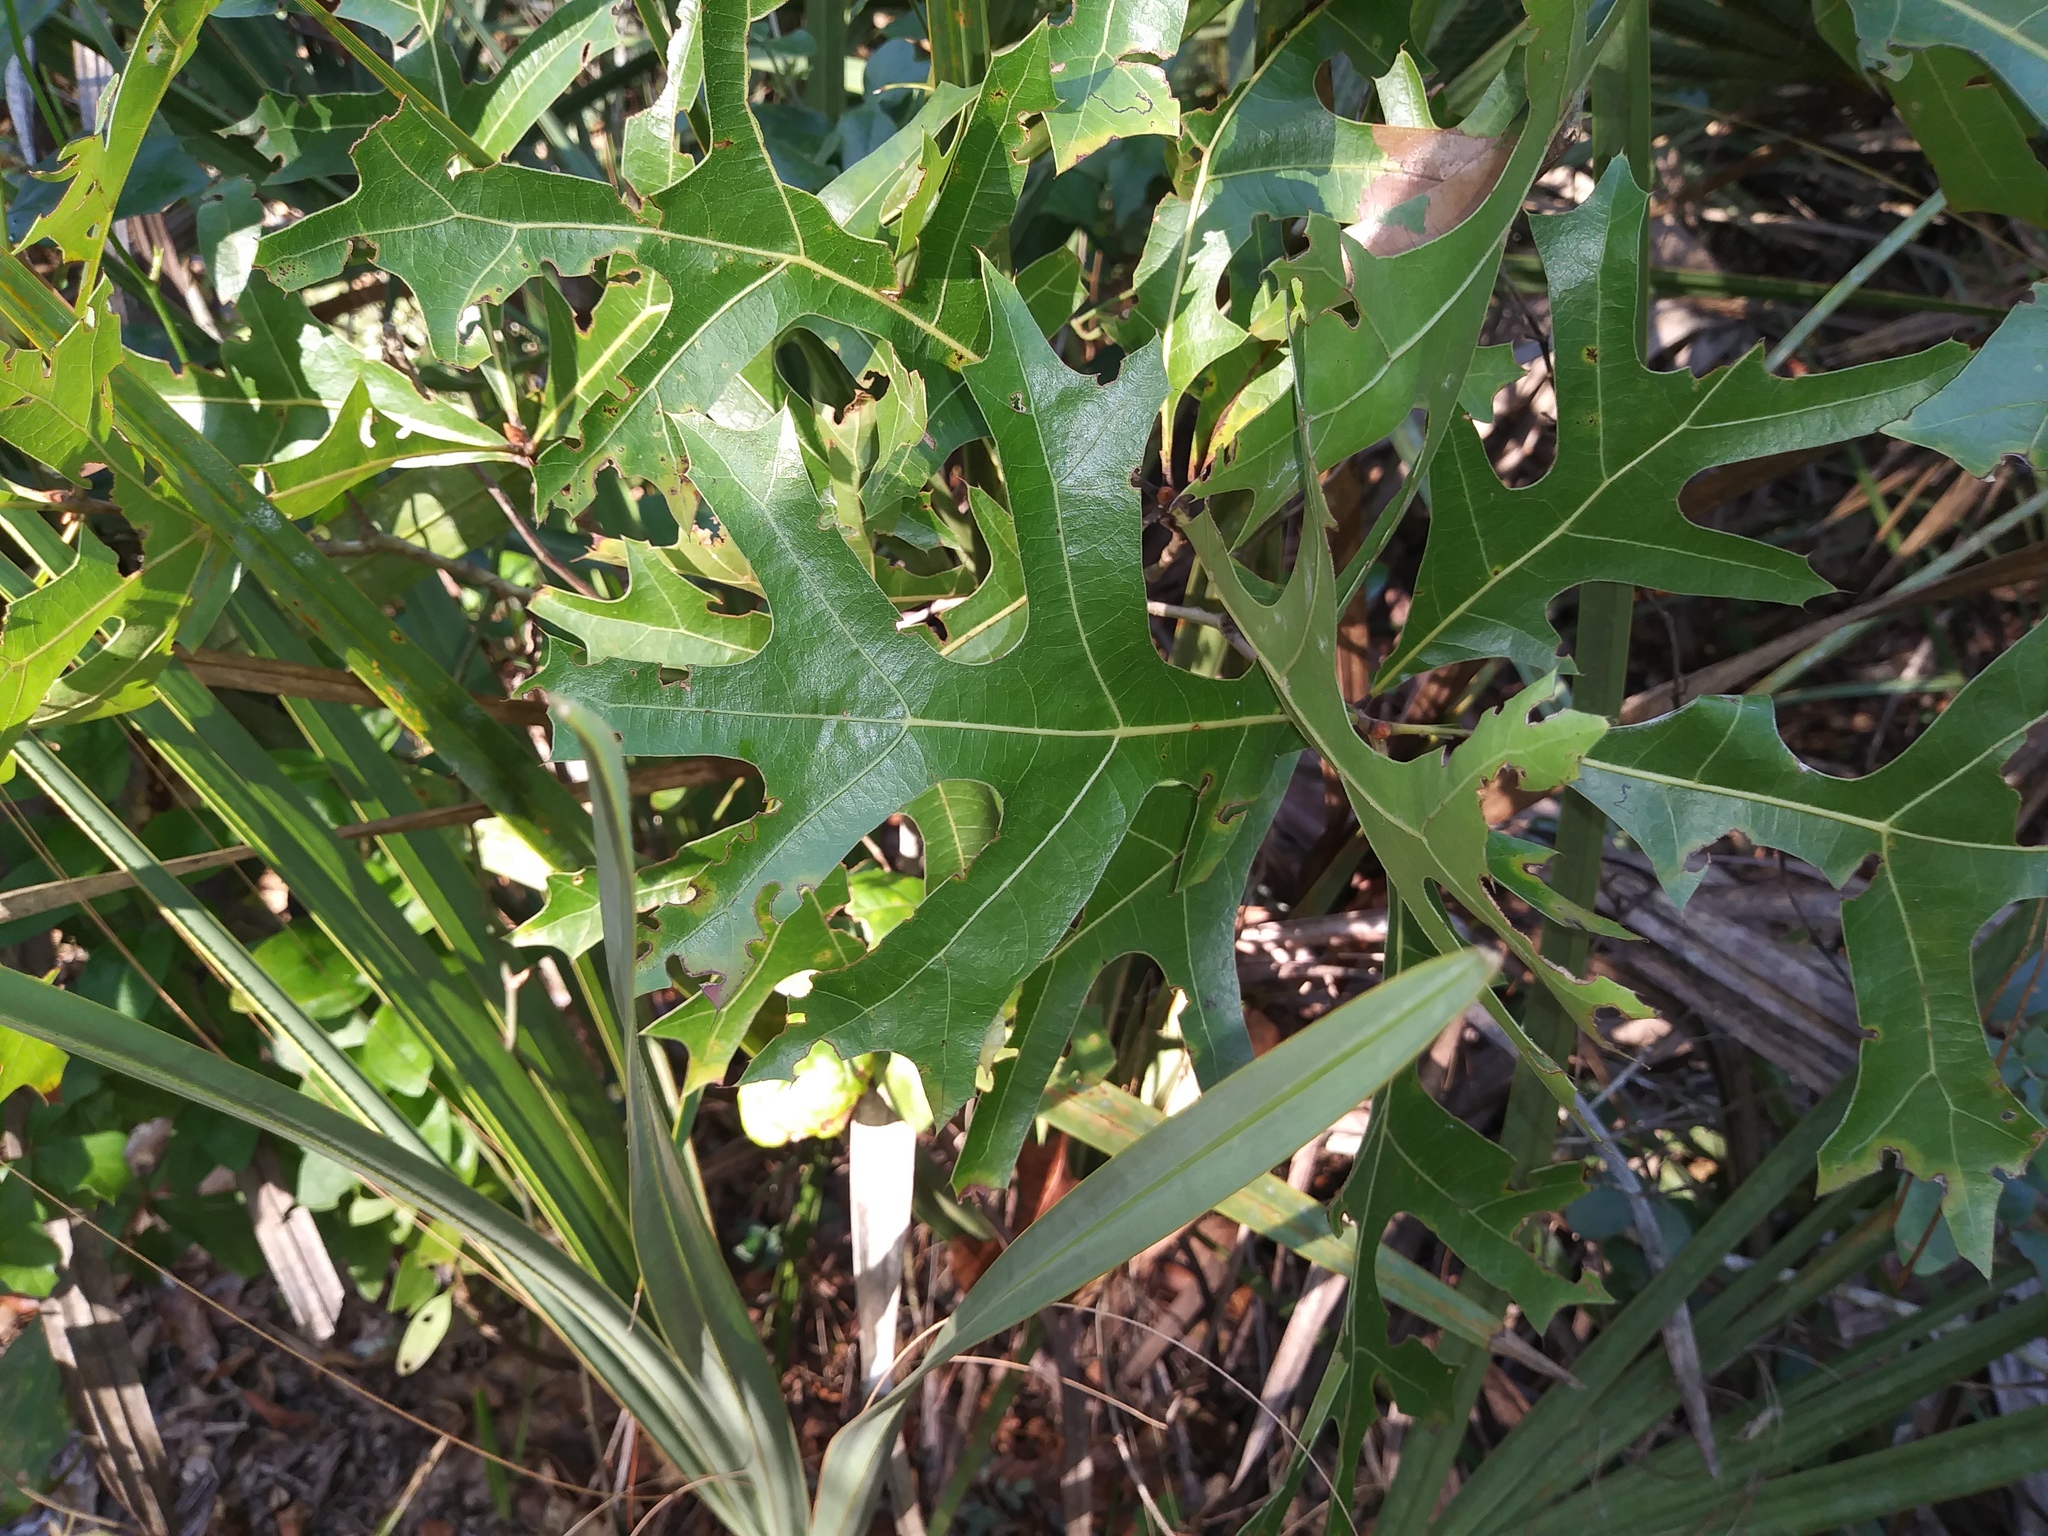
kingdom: Plantae
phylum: Tracheophyta
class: Magnoliopsida
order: Fagales
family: Fagaceae
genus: Quercus
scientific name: Quercus laevis
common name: Turkey oak
